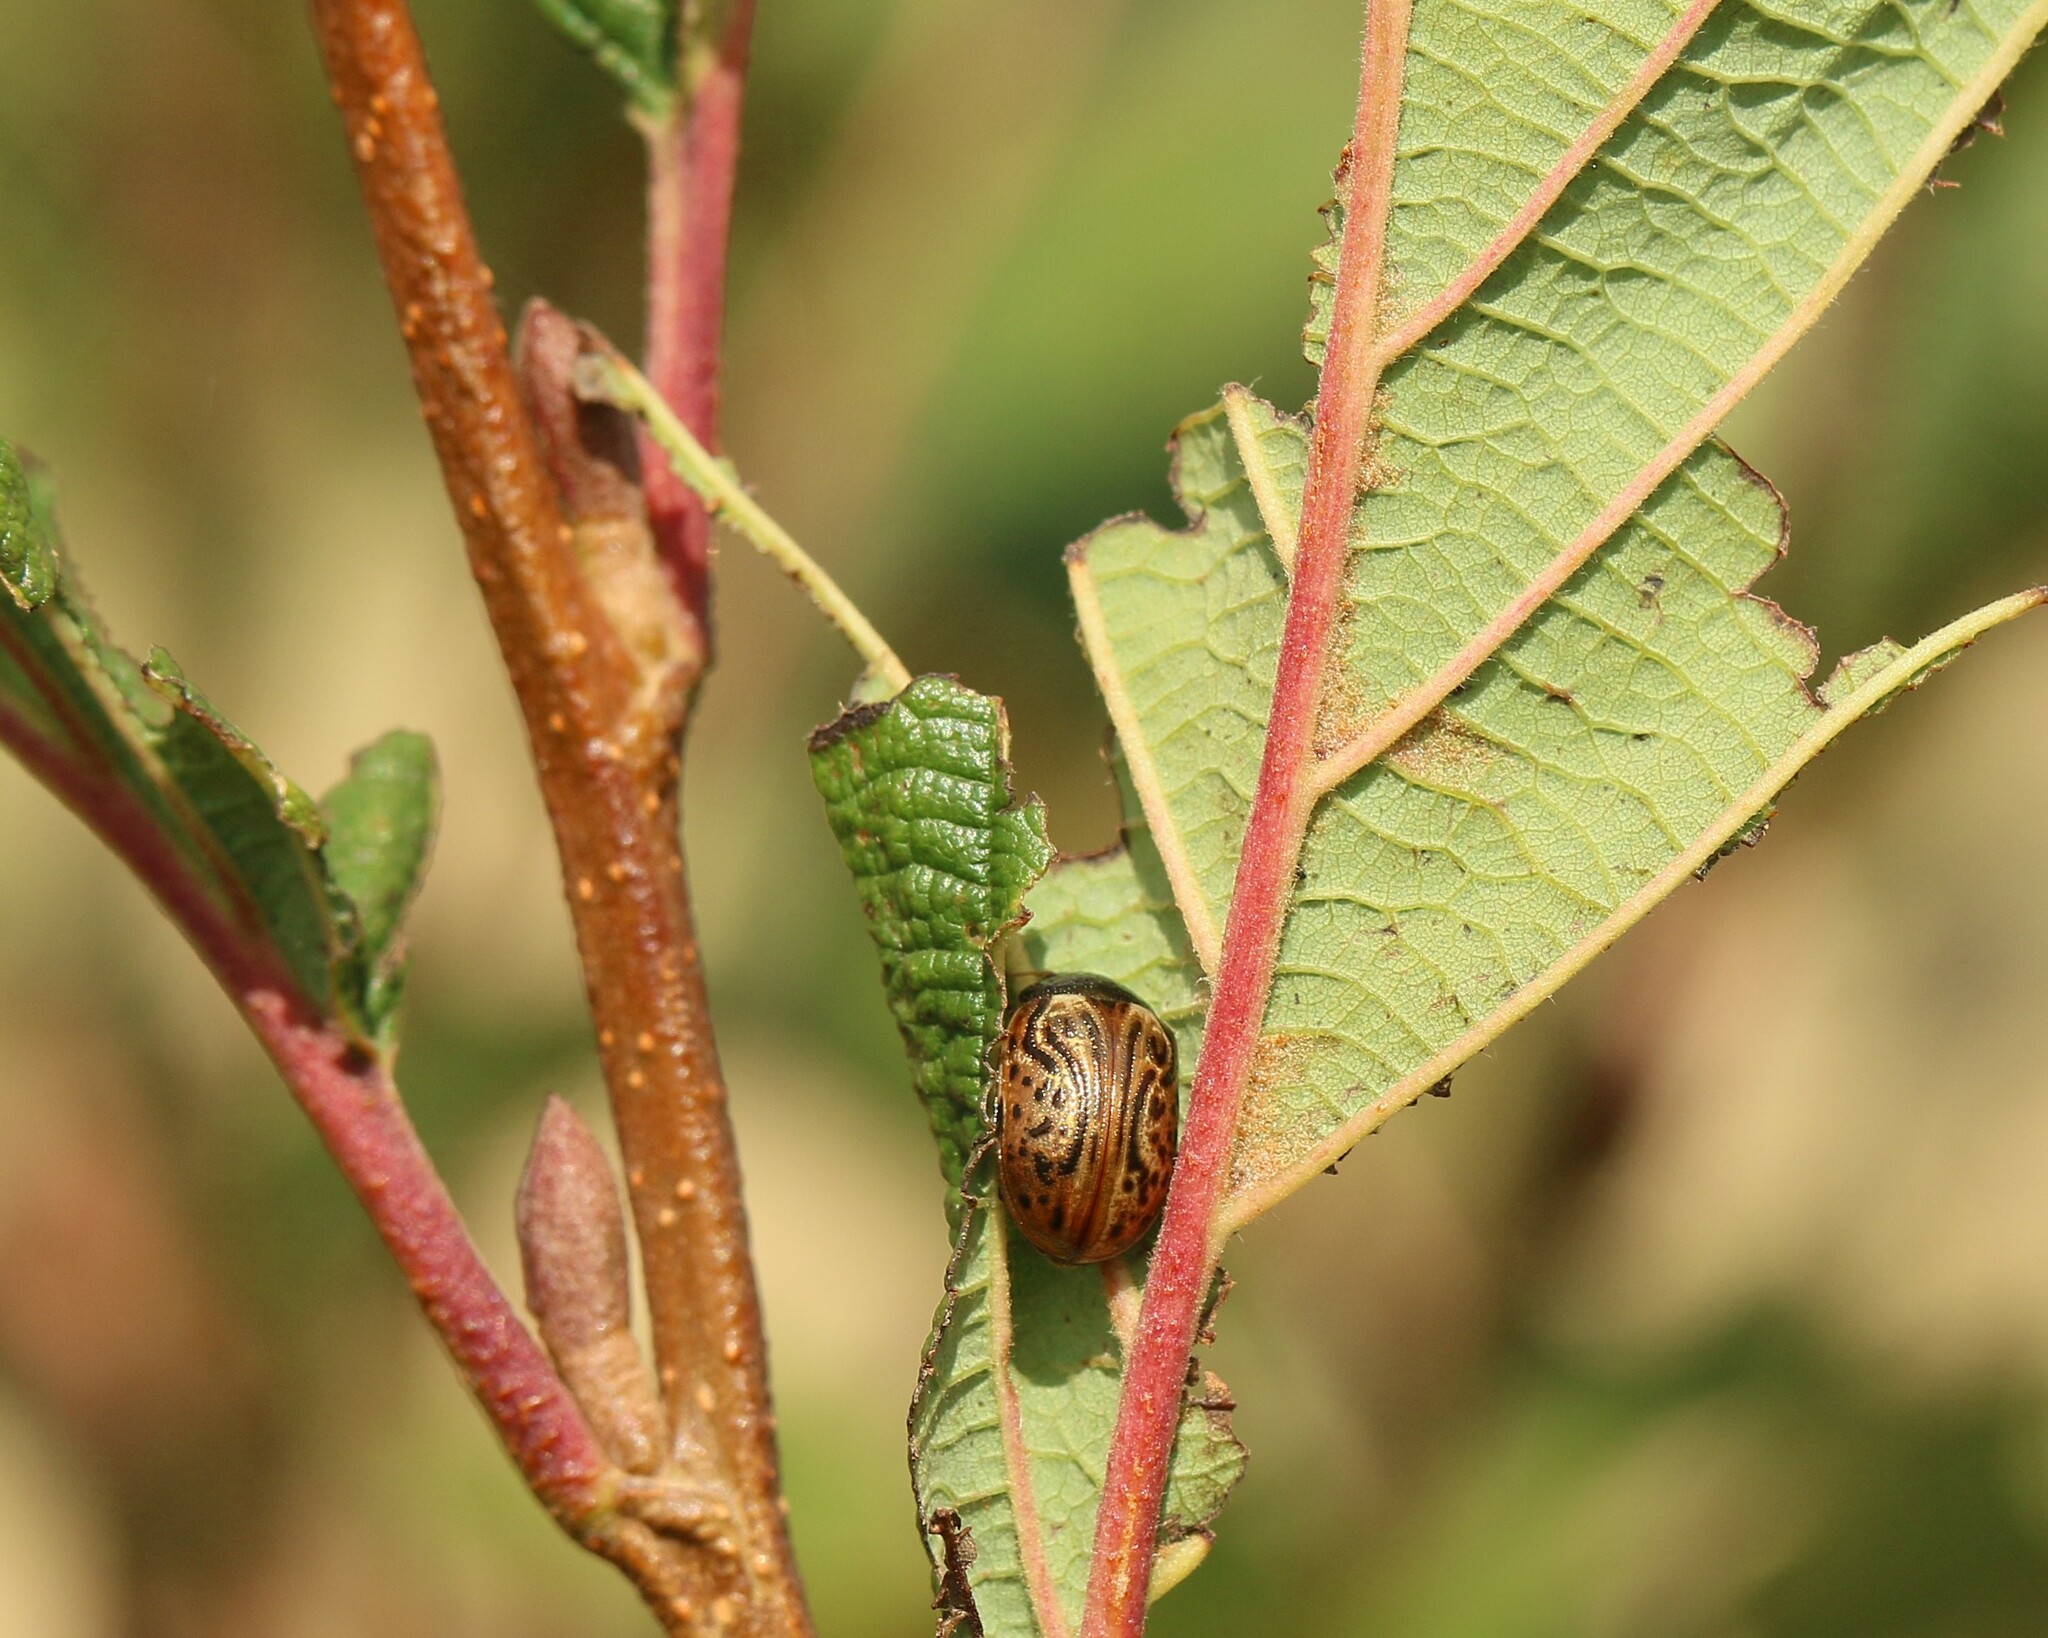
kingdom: Animalia
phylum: Arthropoda
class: Insecta
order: Coleoptera
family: Chrysomelidae
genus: Calligrapha
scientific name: Calligrapha alni
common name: Russet alder leaf beetle
